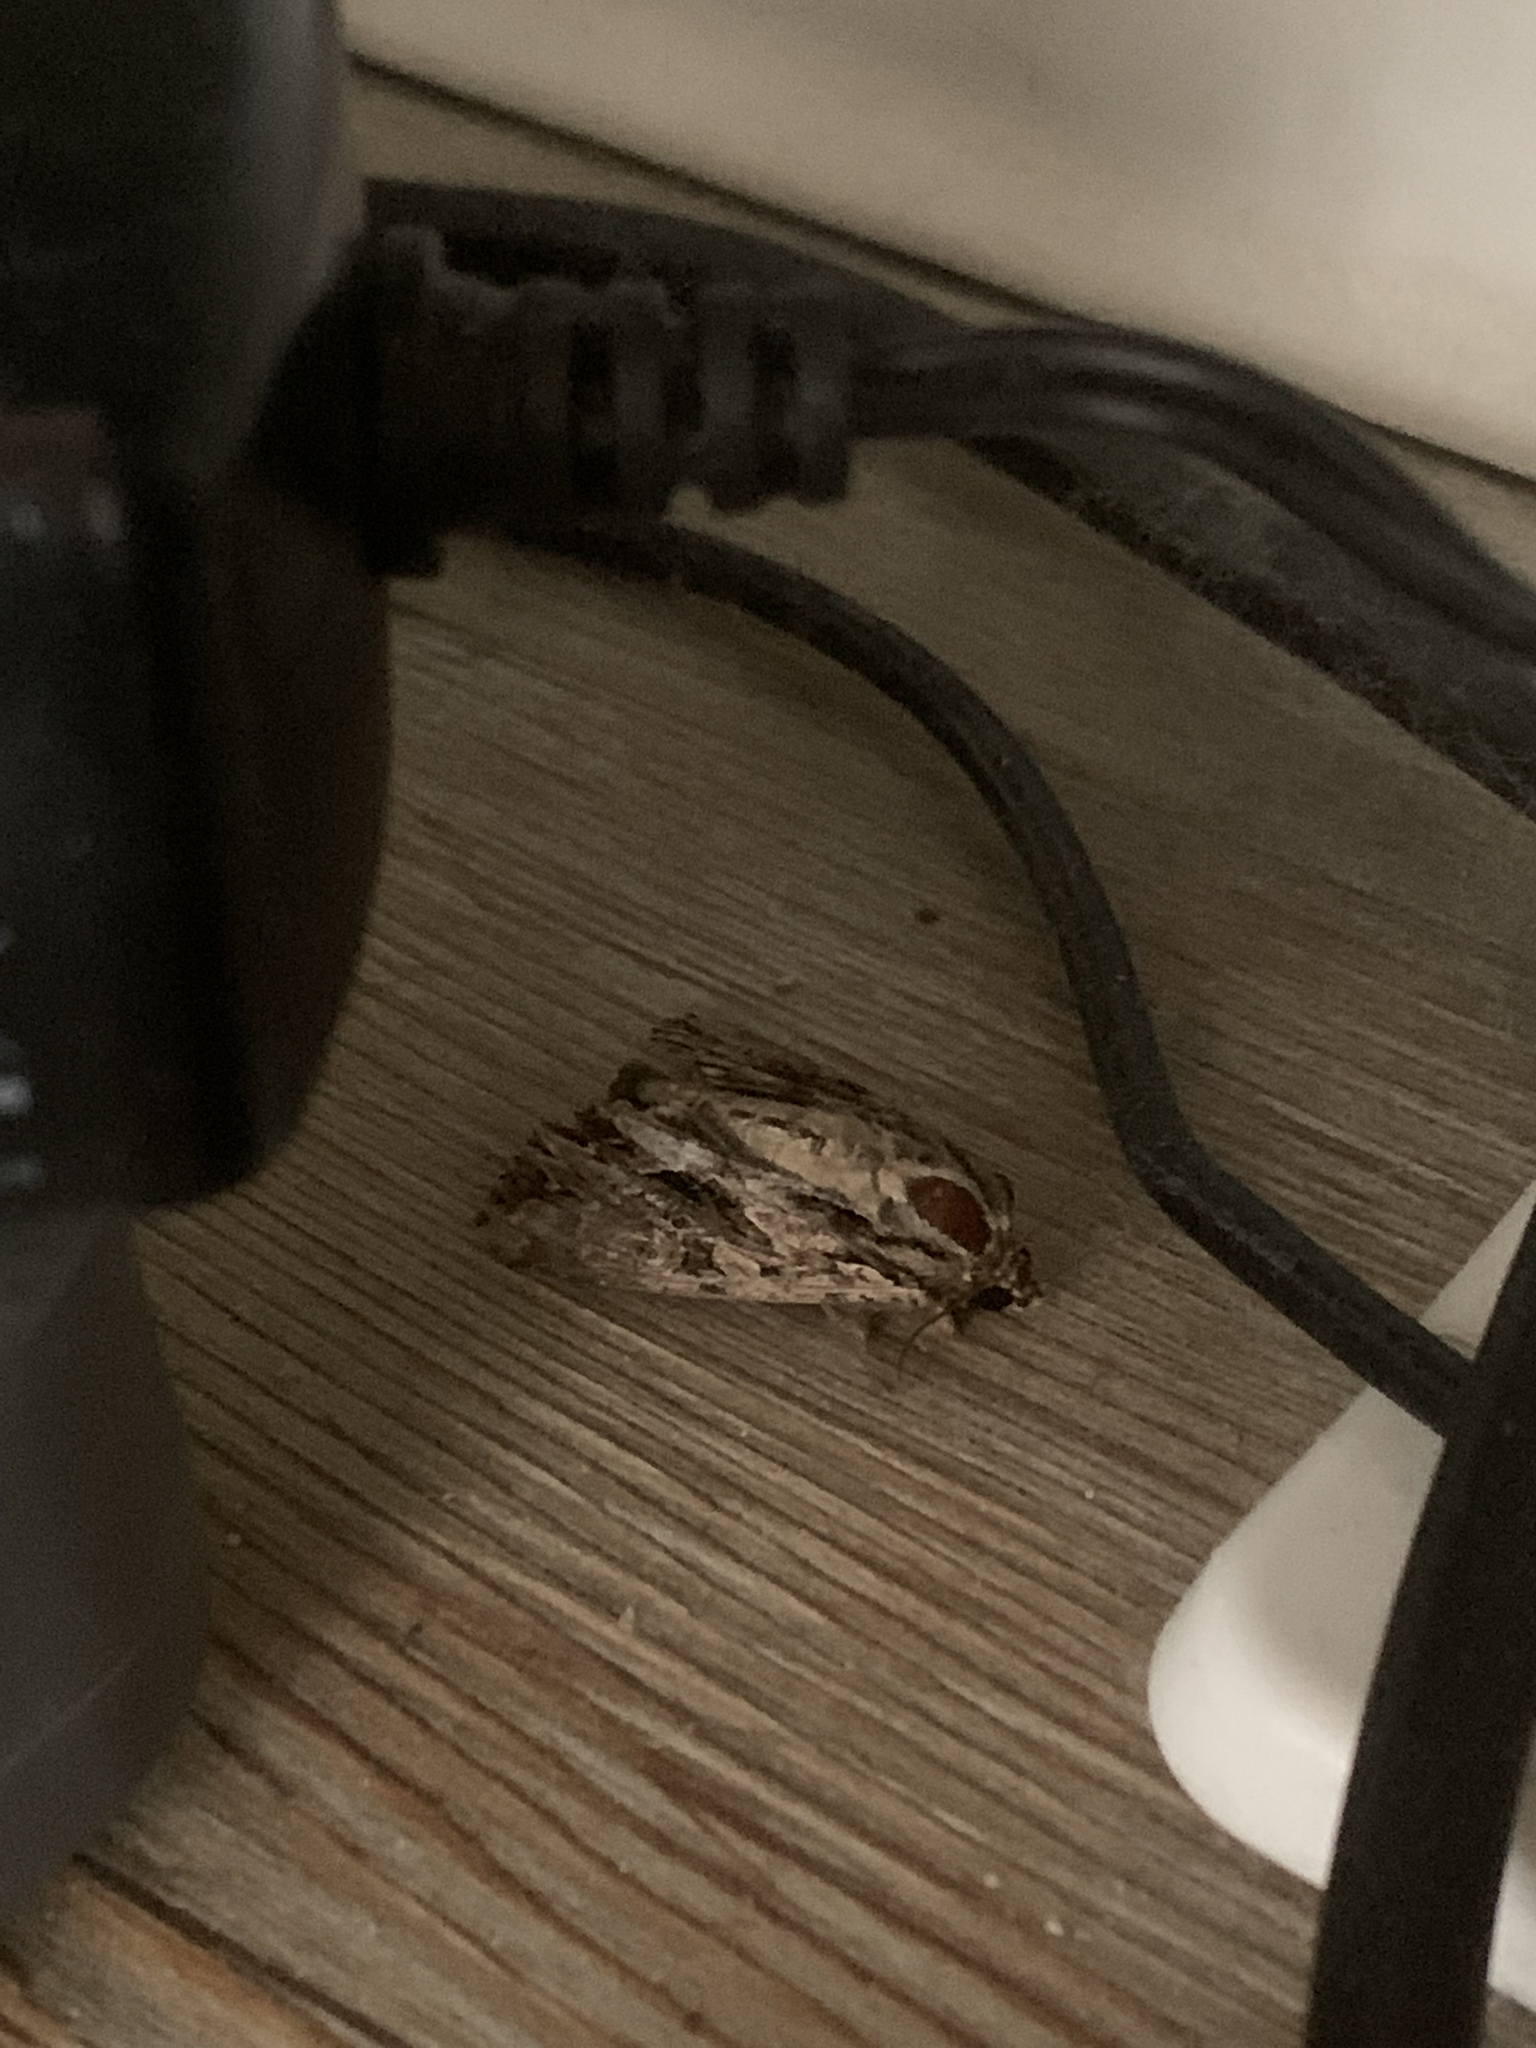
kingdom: Animalia
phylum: Arthropoda
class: Insecta
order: Lepidoptera
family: Noctuidae
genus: Apamea
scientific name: Apamea monoglypha
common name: Dark arches
